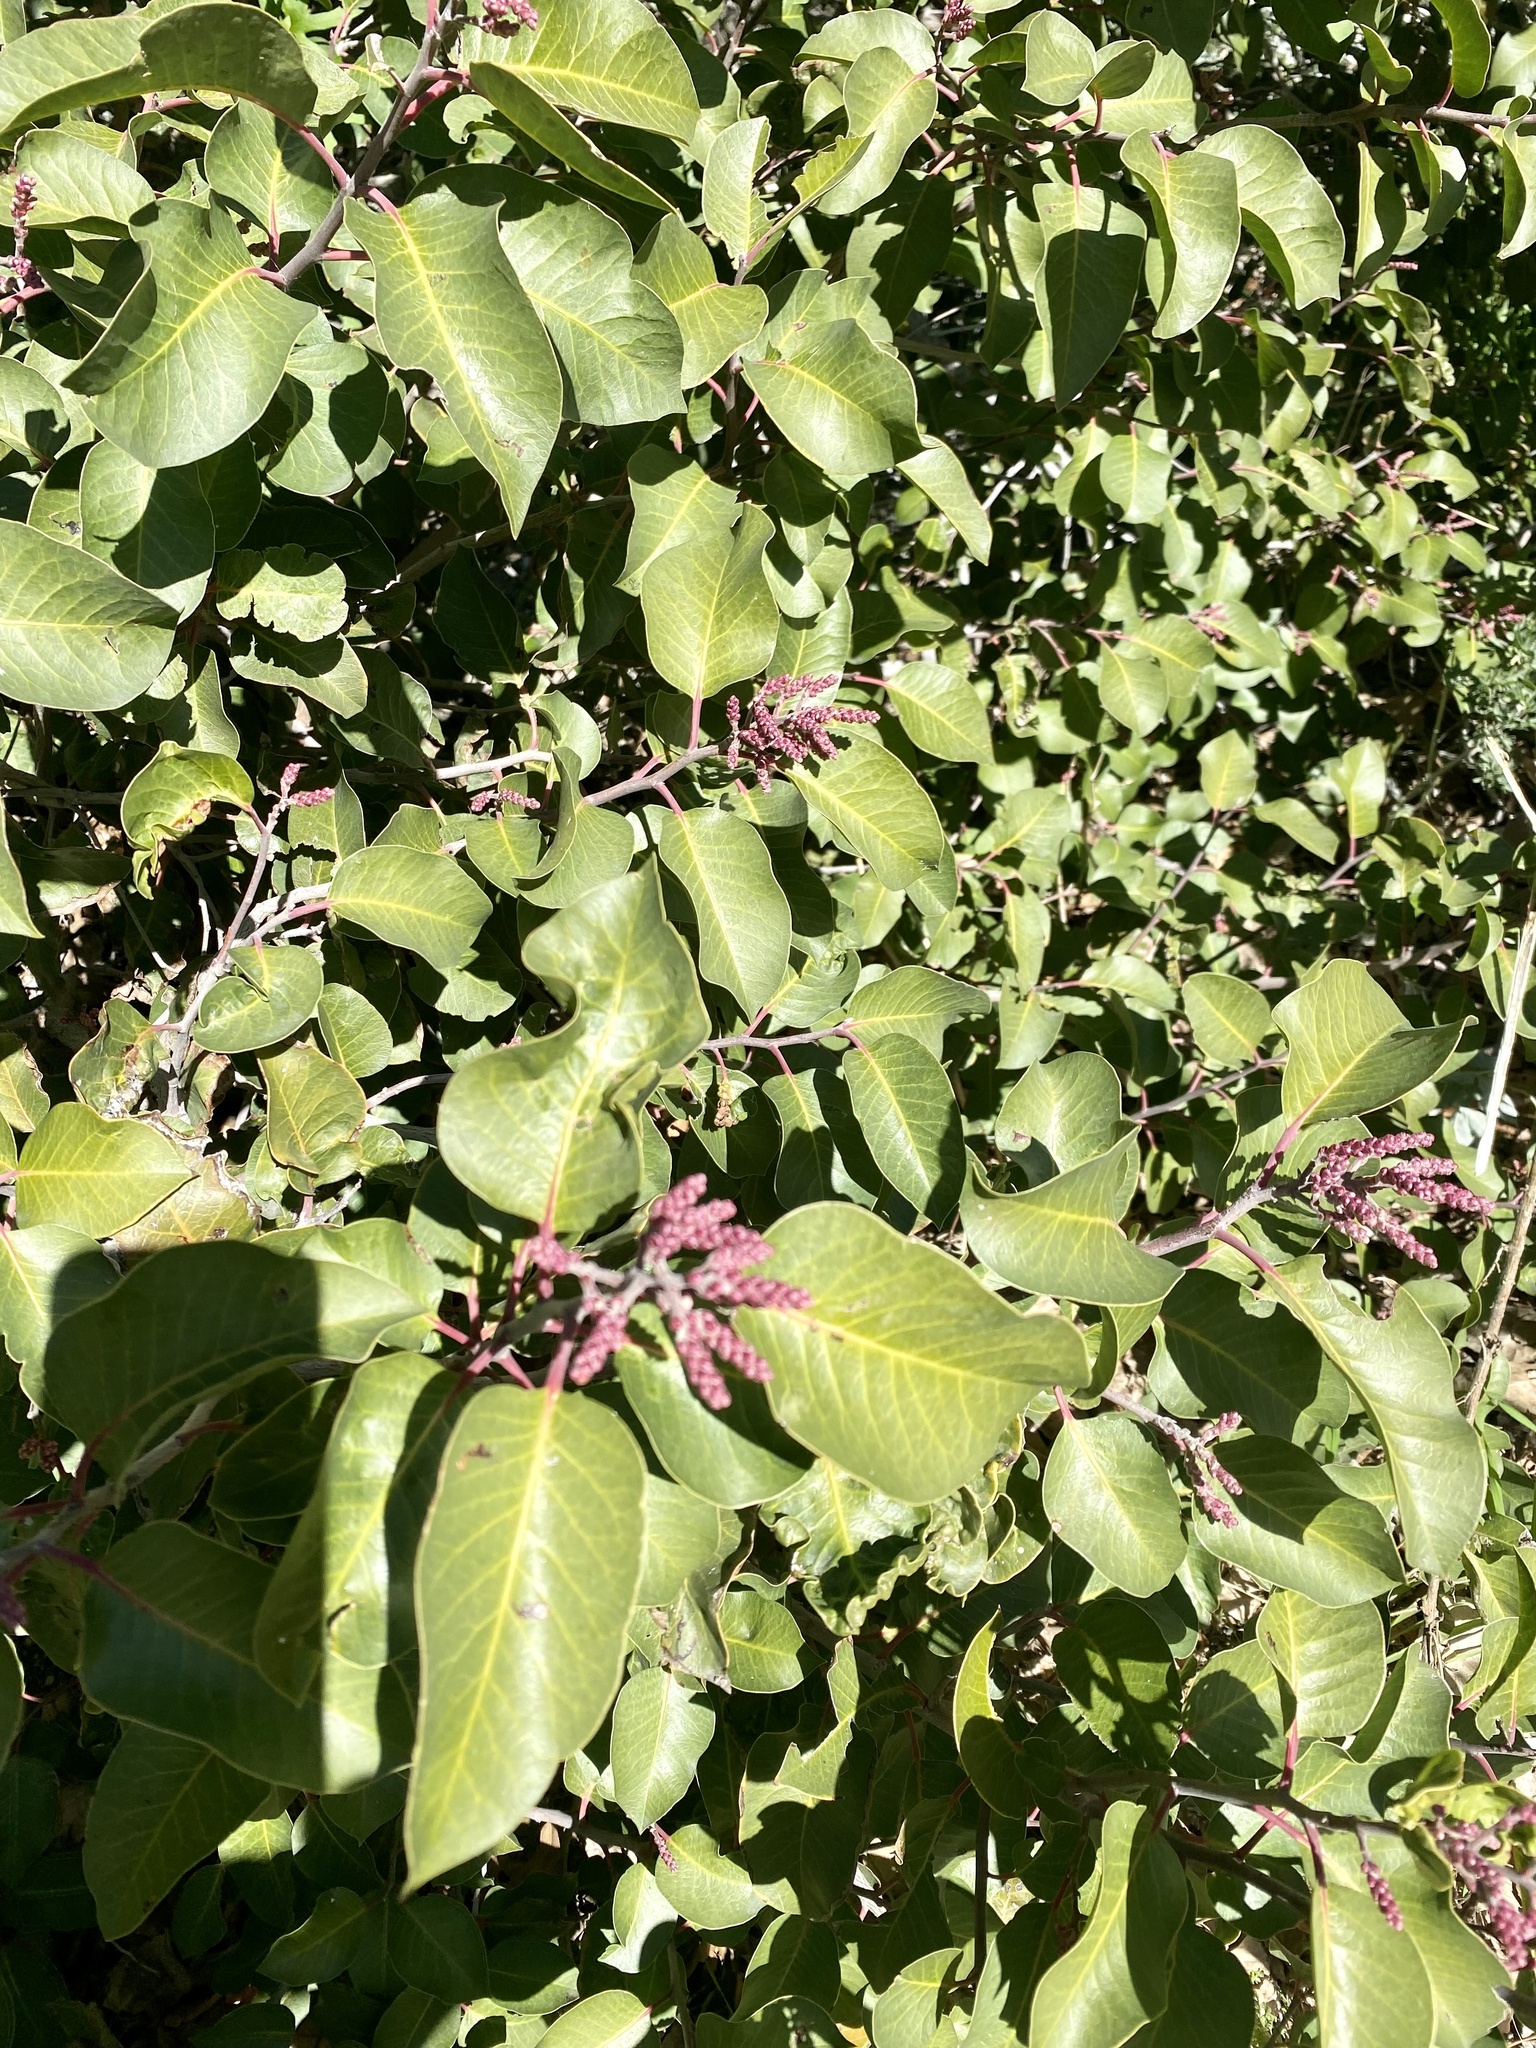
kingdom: Plantae
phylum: Tracheophyta
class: Magnoliopsida
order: Sapindales
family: Anacardiaceae
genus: Rhus
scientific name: Rhus ovata
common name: Sugar sumac
